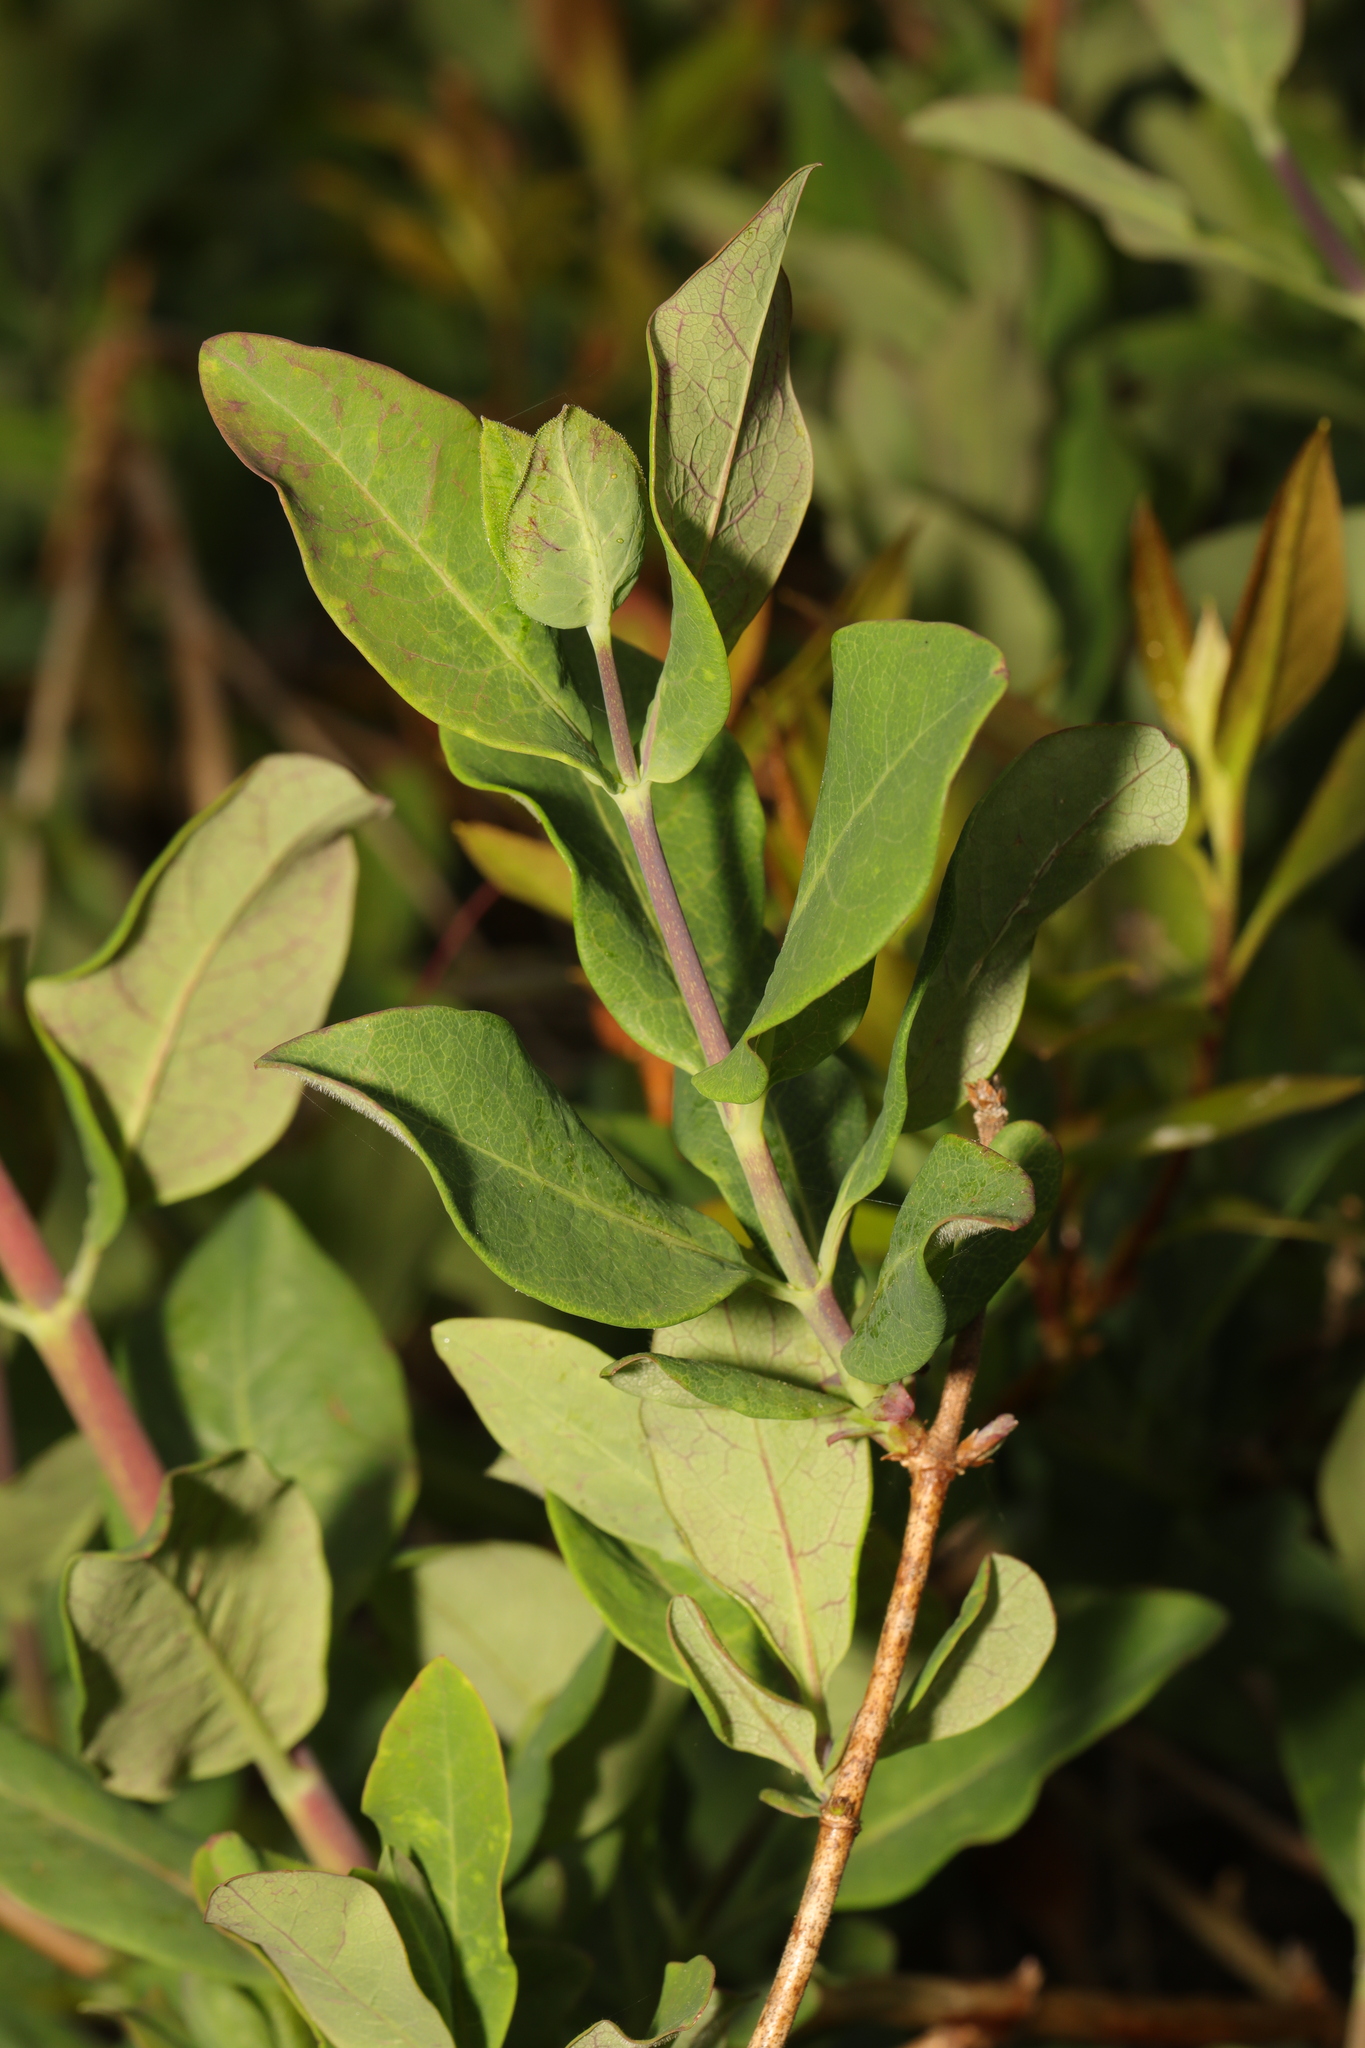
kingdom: Plantae
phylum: Tracheophyta
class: Magnoliopsida
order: Dipsacales
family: Caprifoliaceae
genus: Lonicera
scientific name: Lonicera periclymenum
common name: European honeysuckle
